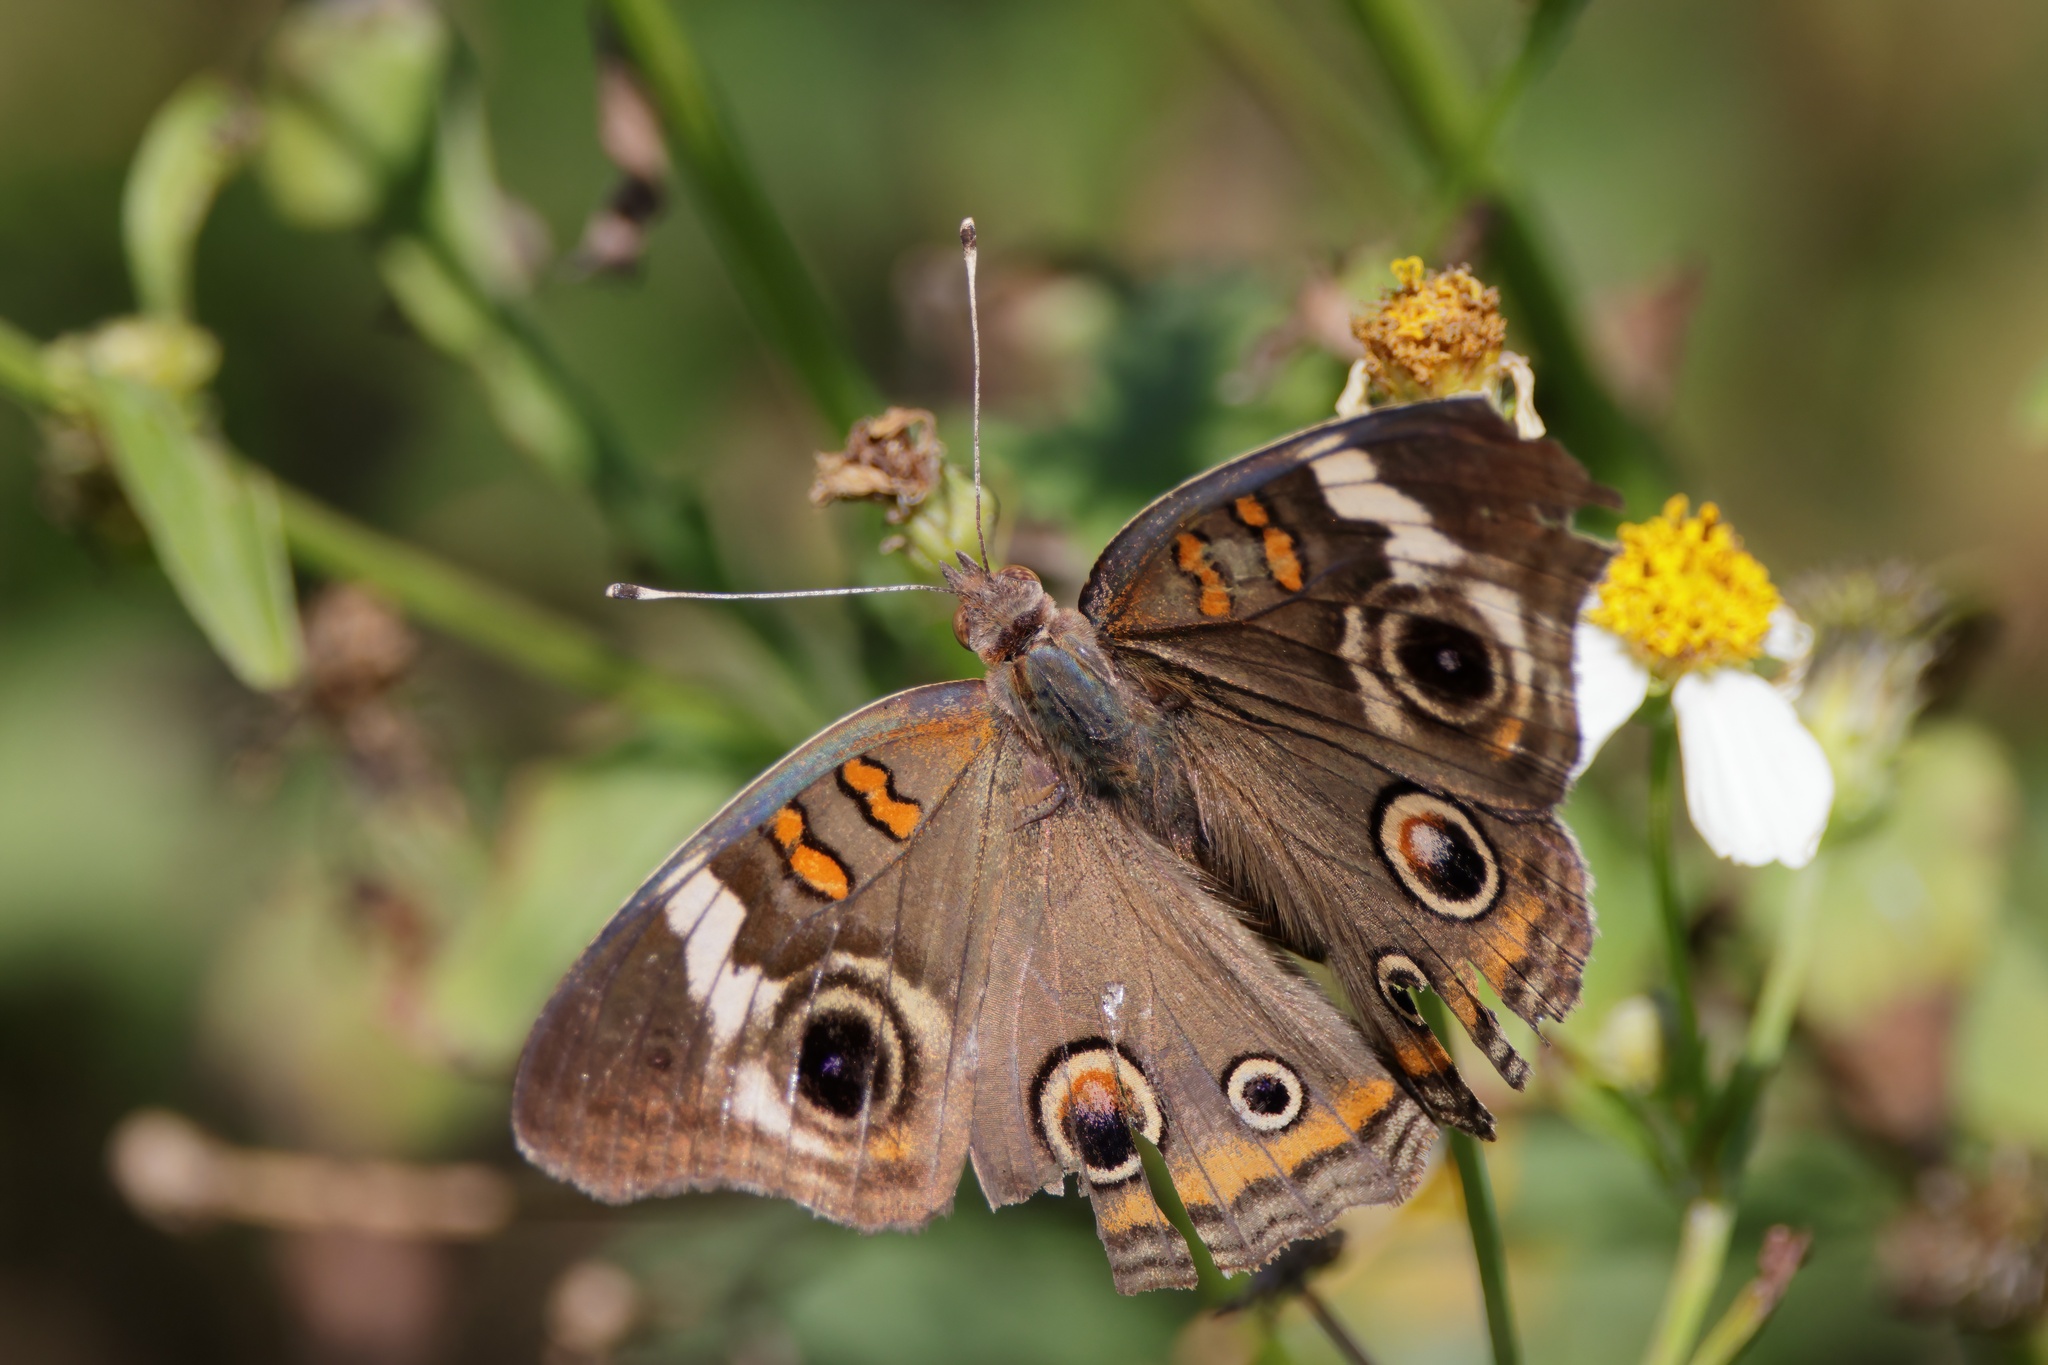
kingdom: Animalia
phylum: Arthropoda
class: Insecta
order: Lepidoptera
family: Nymphalidae
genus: Junonia
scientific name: Junonia coenia
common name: Common buckeye
